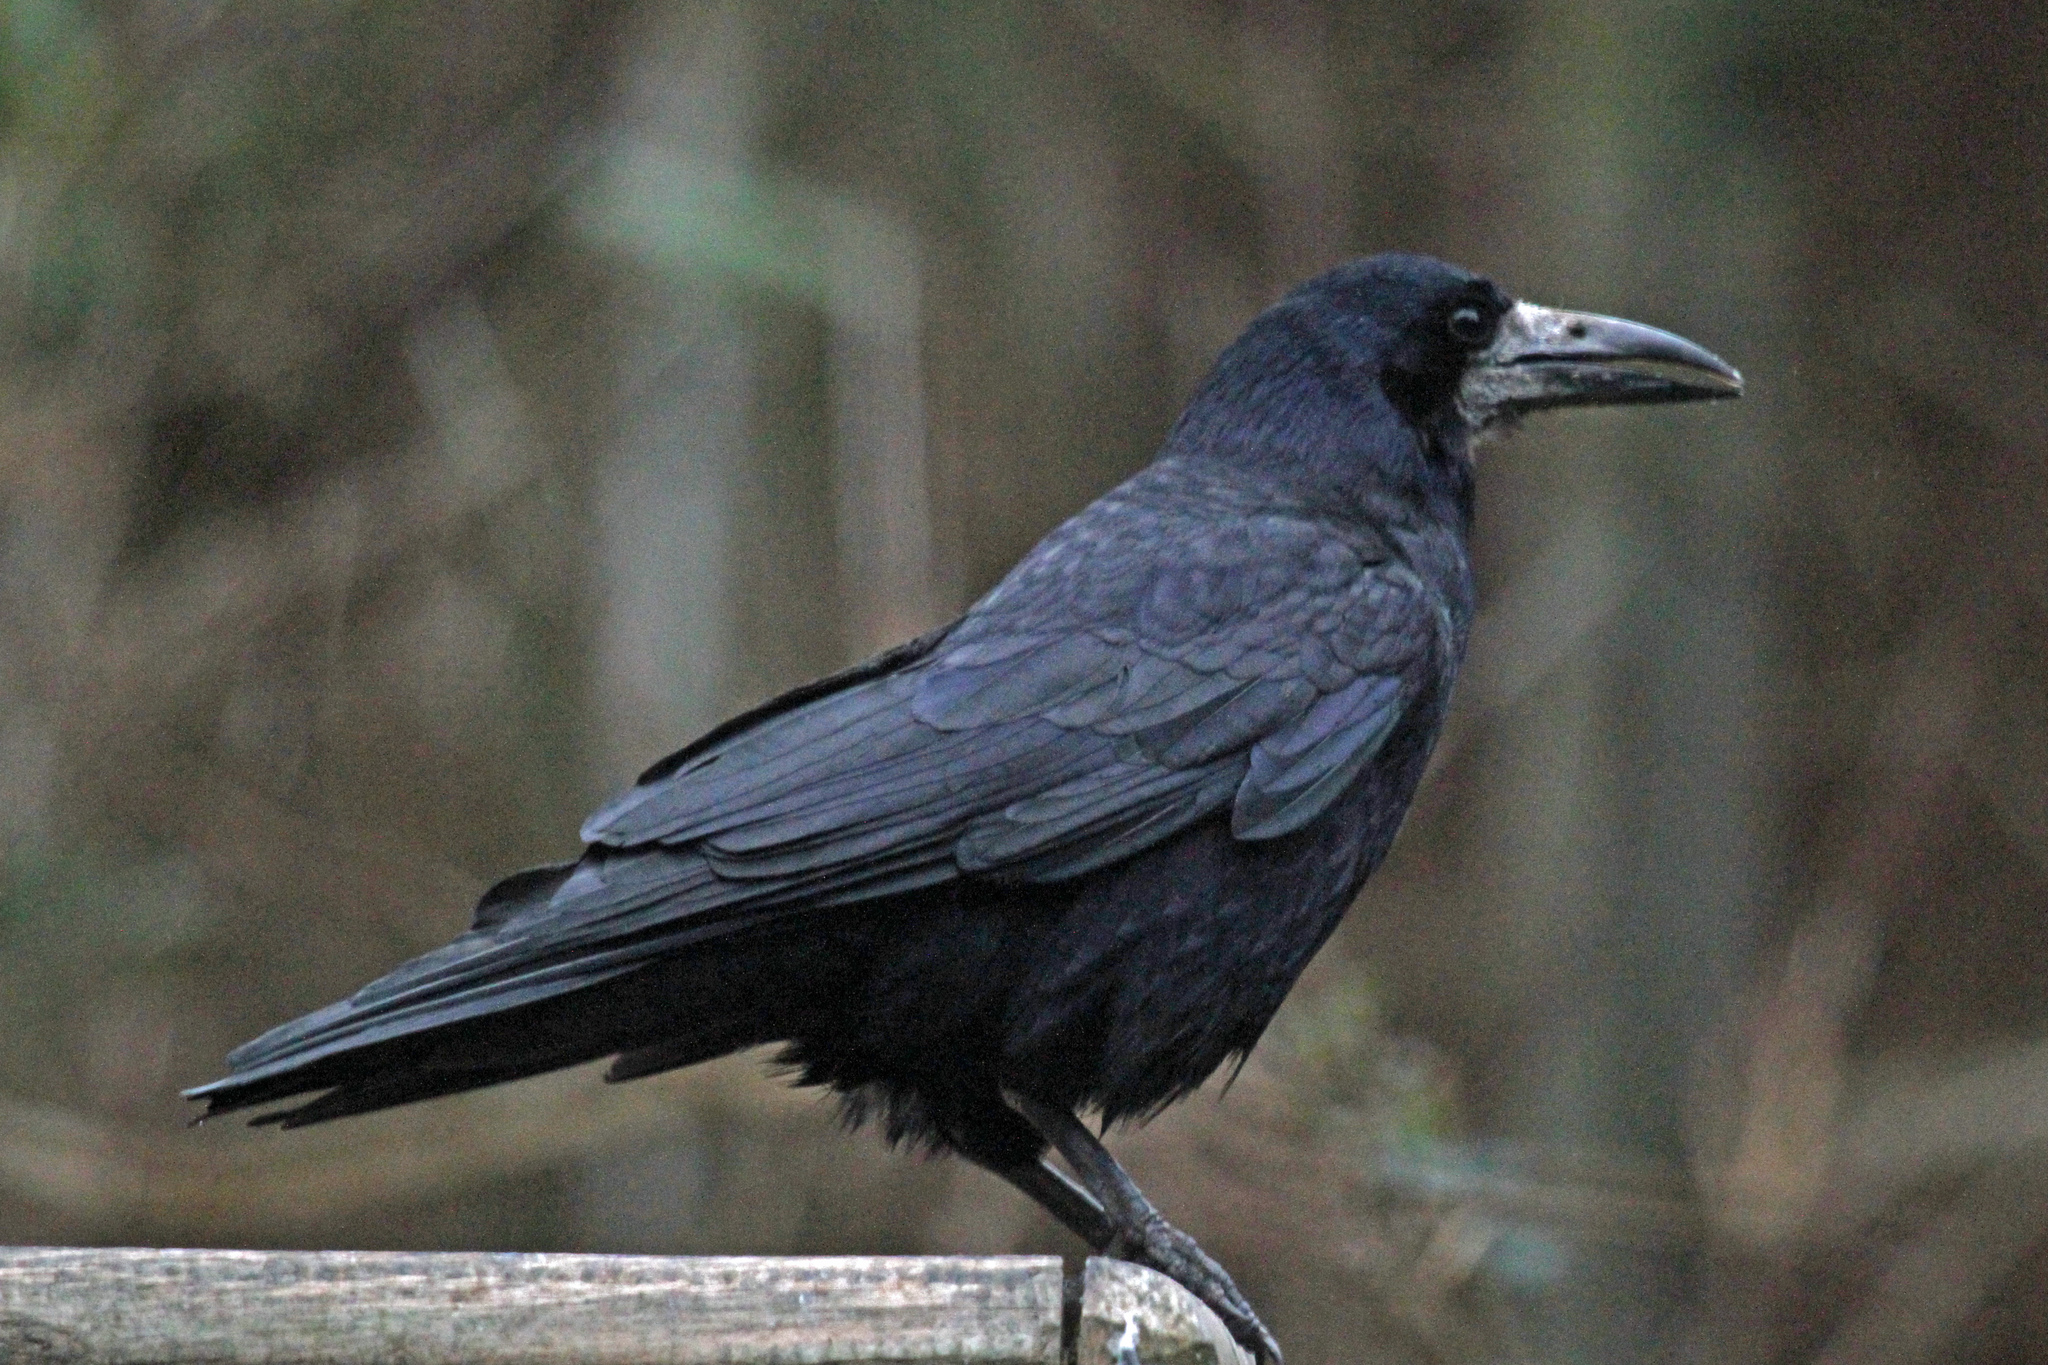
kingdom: Animalia
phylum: Chordata
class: Aves
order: Passeriformes
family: Corvidae
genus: Corvus
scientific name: Corvus frugilegus
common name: Rook
